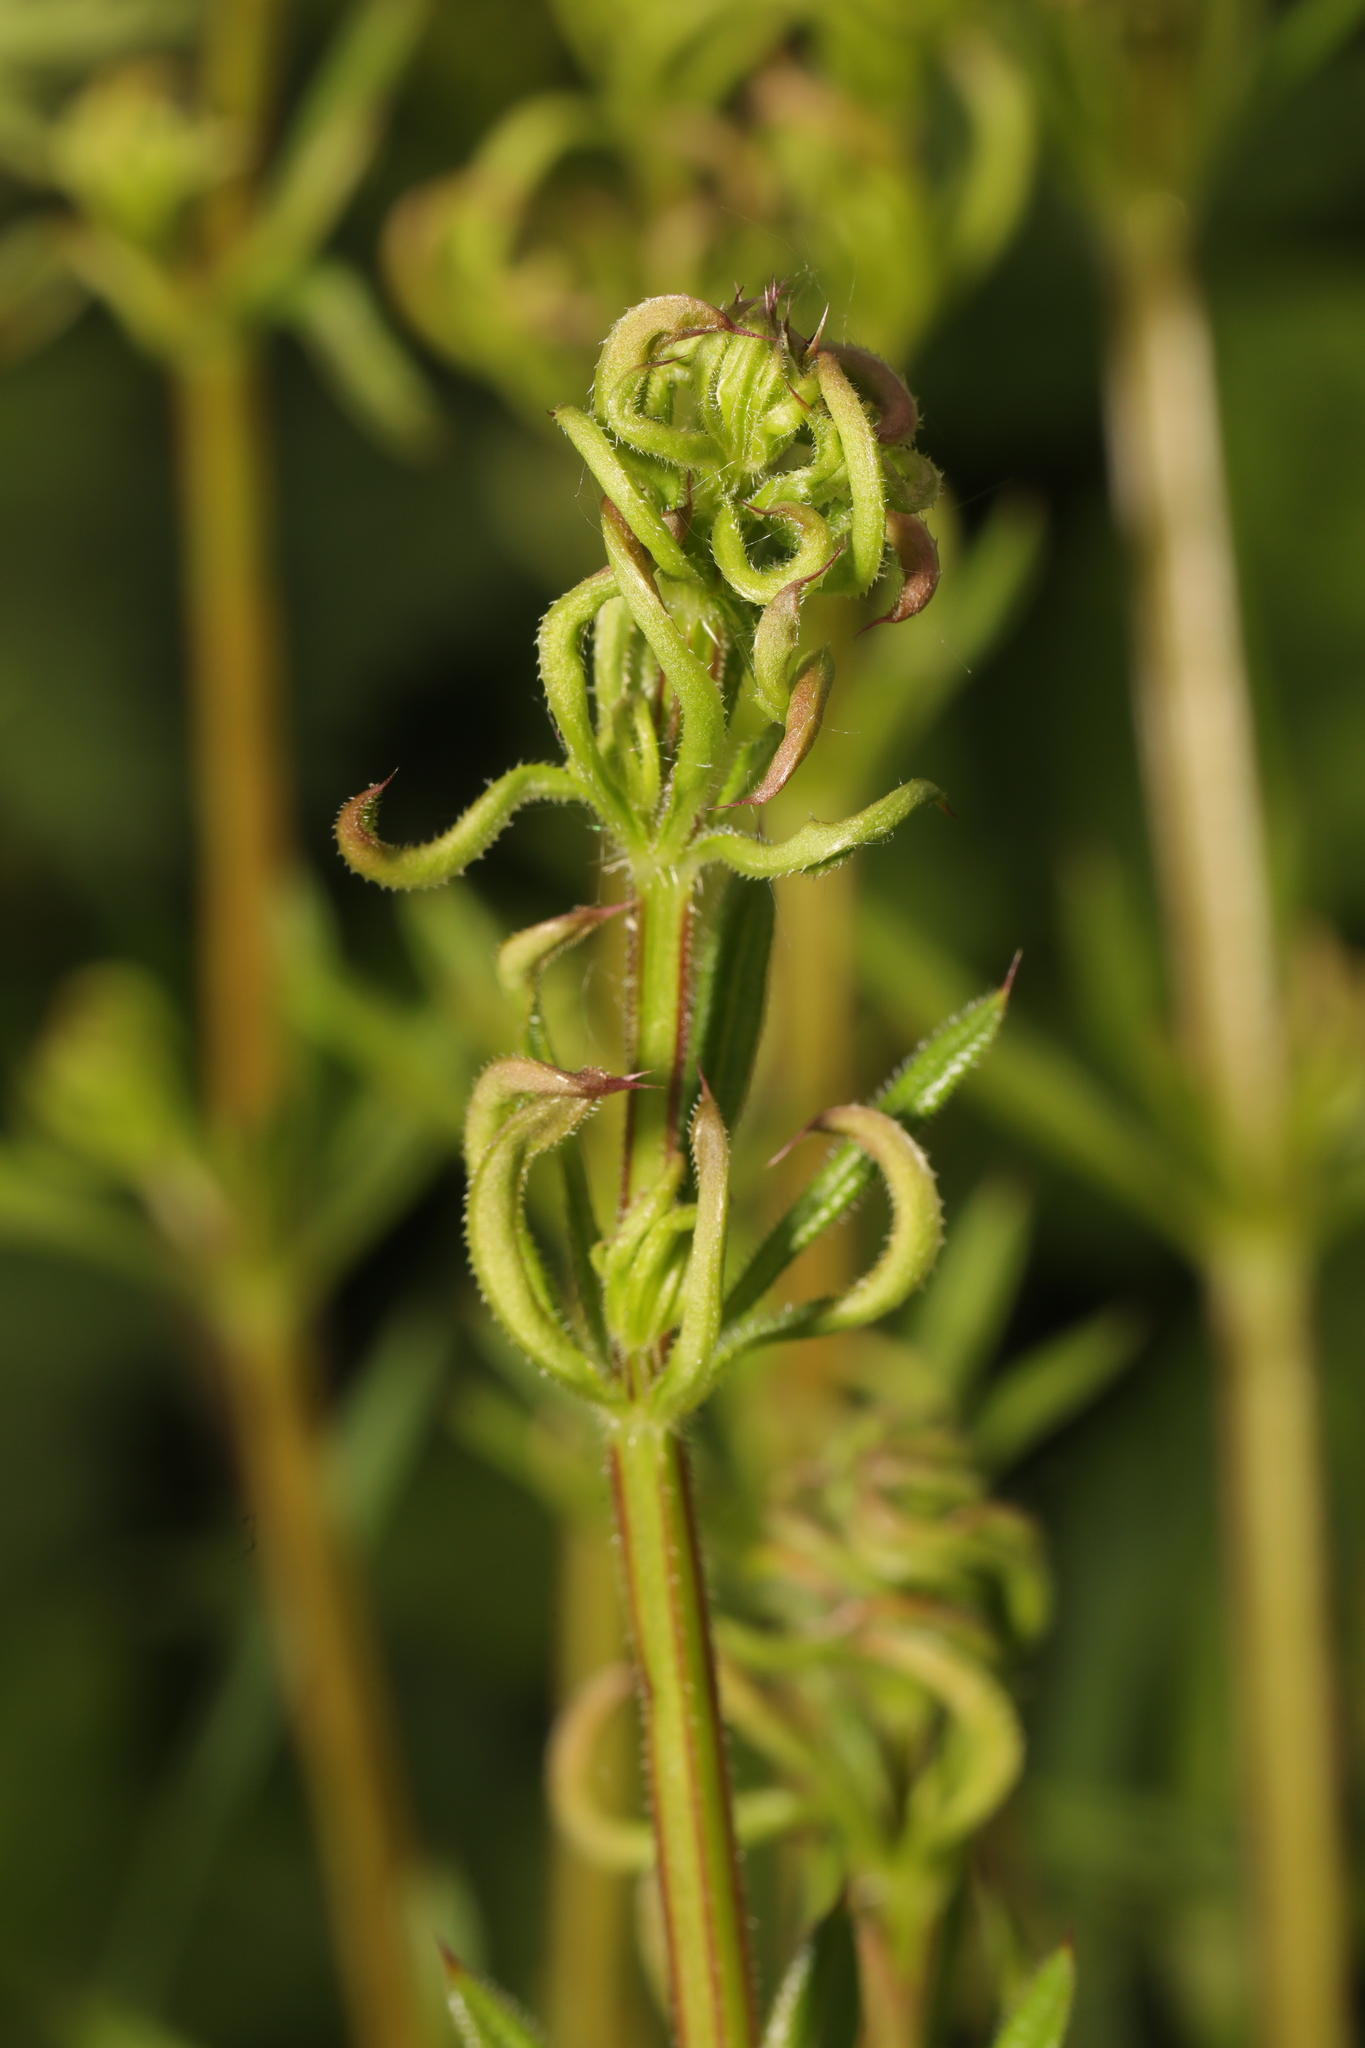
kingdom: Animalia
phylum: Arthropoda
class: Arachnida
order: Trombidiformes
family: Eriophyidae
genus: Cecidophyes
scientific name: Cecidophyes rouhollahi
